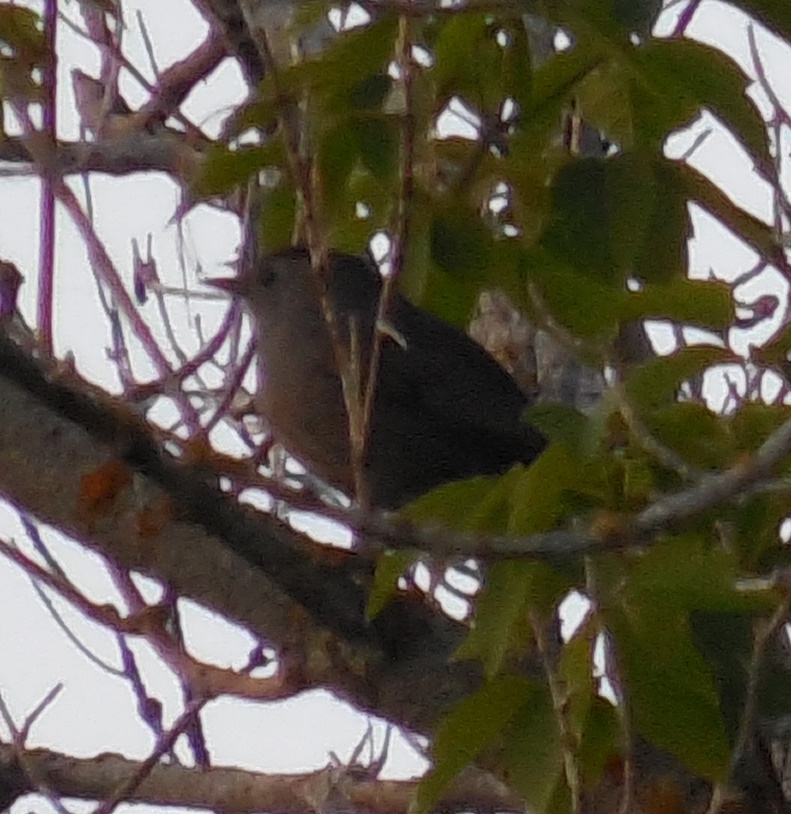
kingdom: Animalia
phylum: Chordata
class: Aves
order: Passeriformes
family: Mimidae
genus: Dumetella
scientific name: Dumetella carolinensis
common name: Gray catbird
